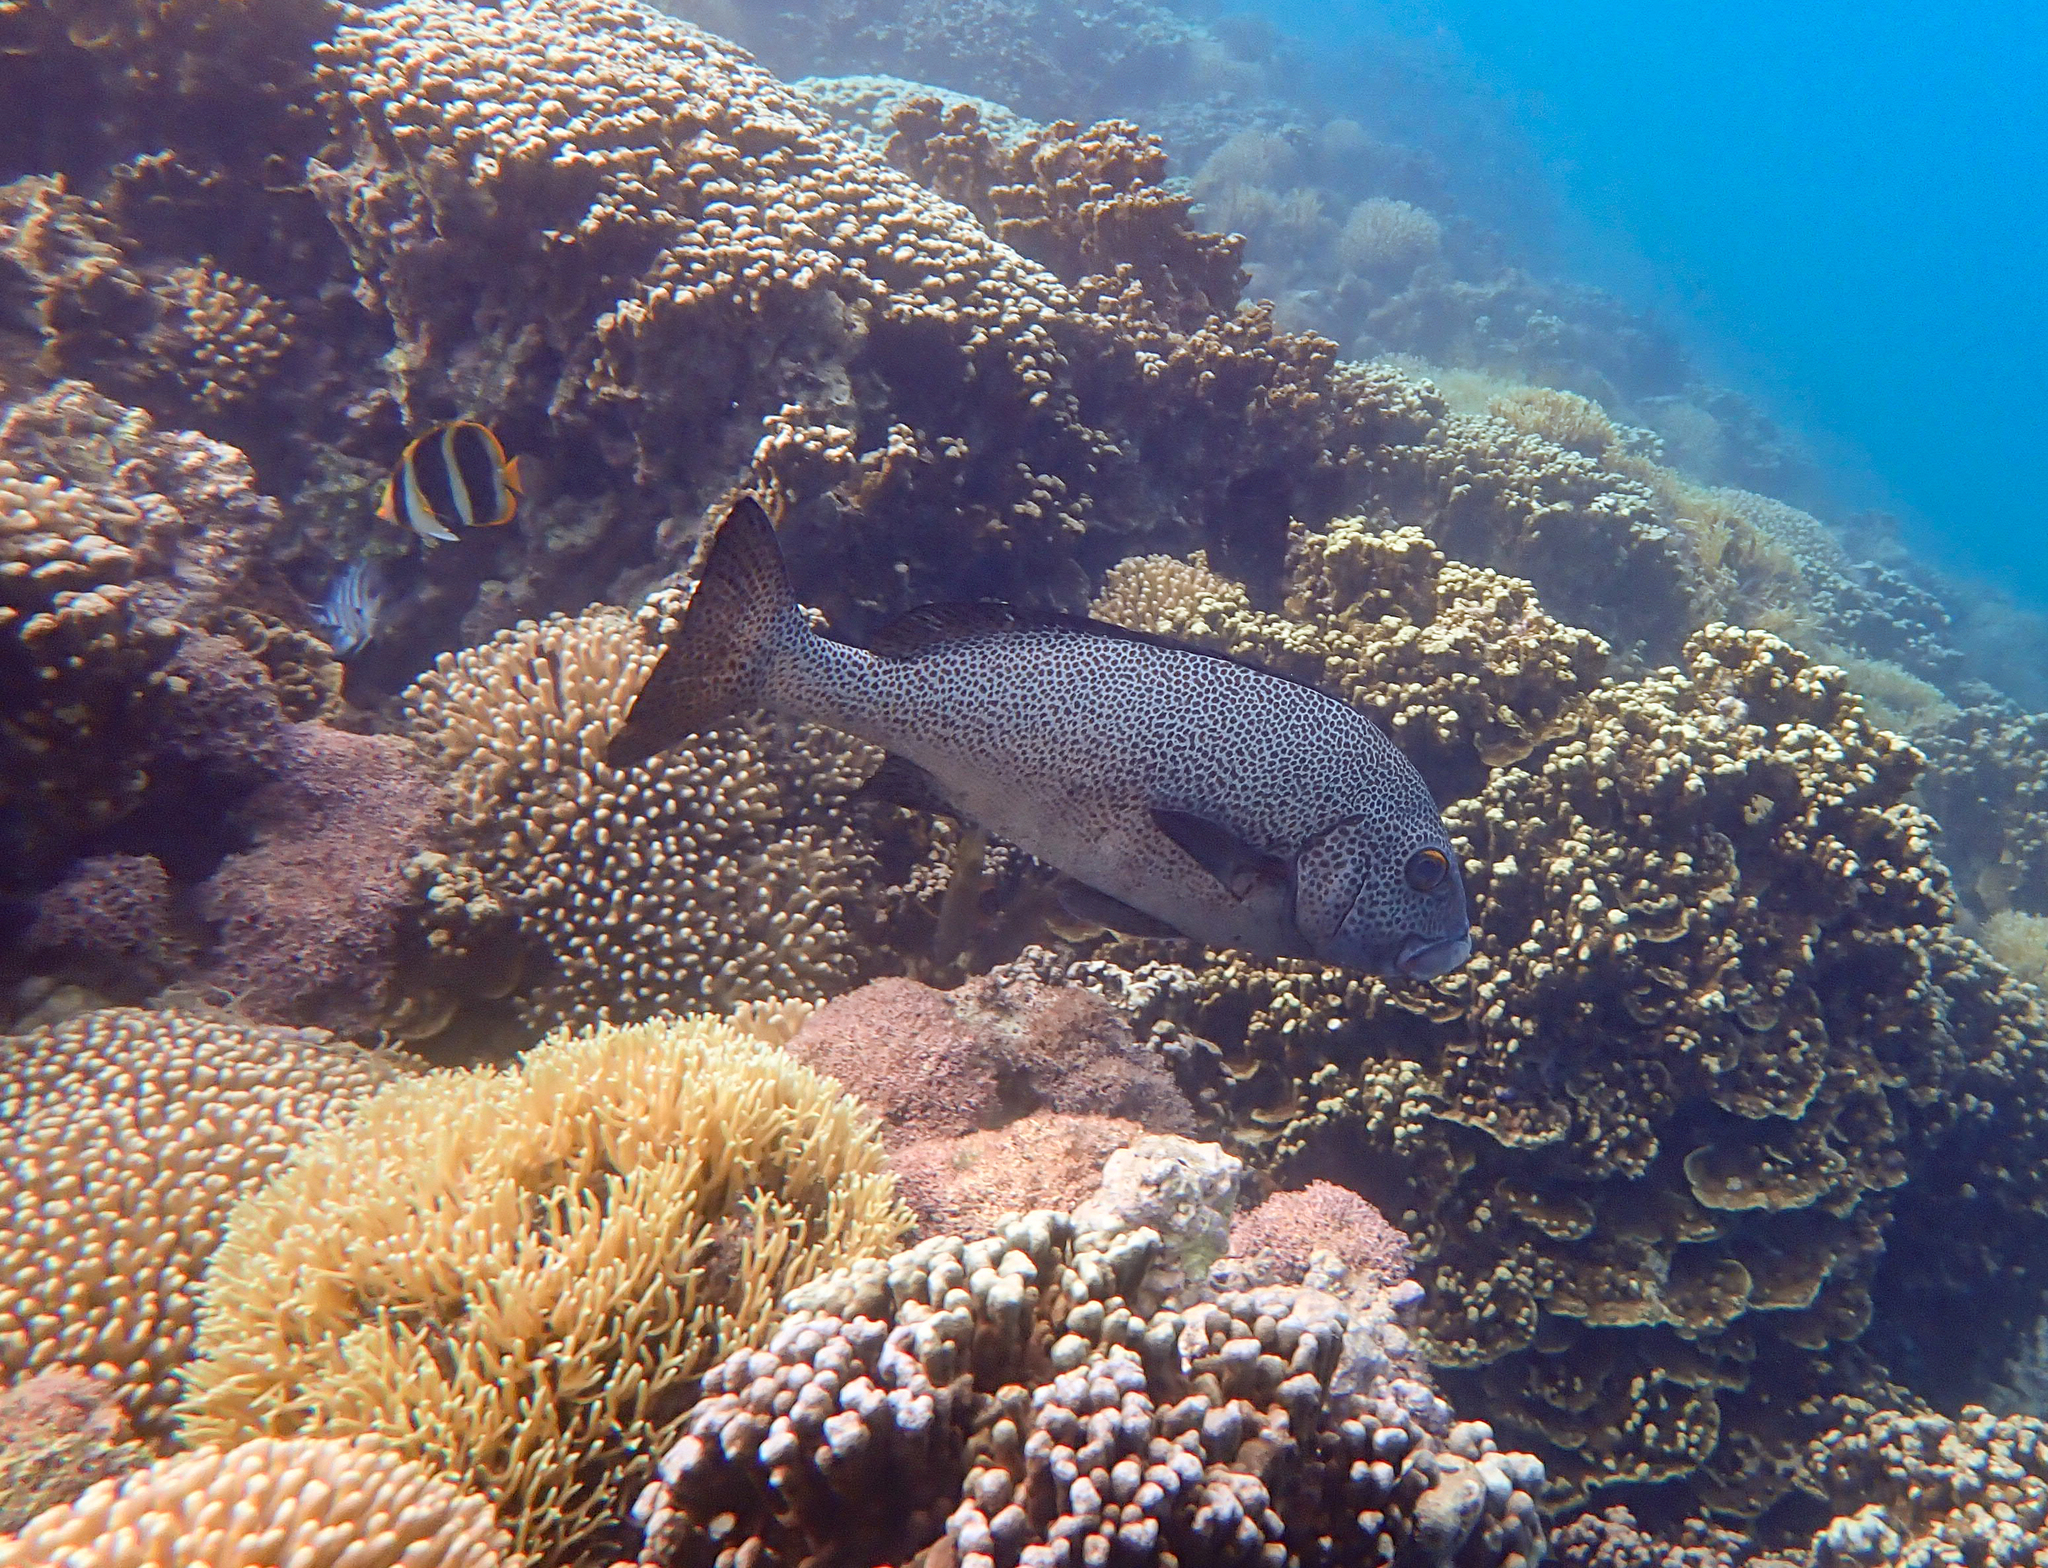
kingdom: Animalia
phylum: Chordata
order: Perciformes
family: Haemulidae
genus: Plectorhinchus
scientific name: Plectorhinchus picus
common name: Spotted sweetlips
